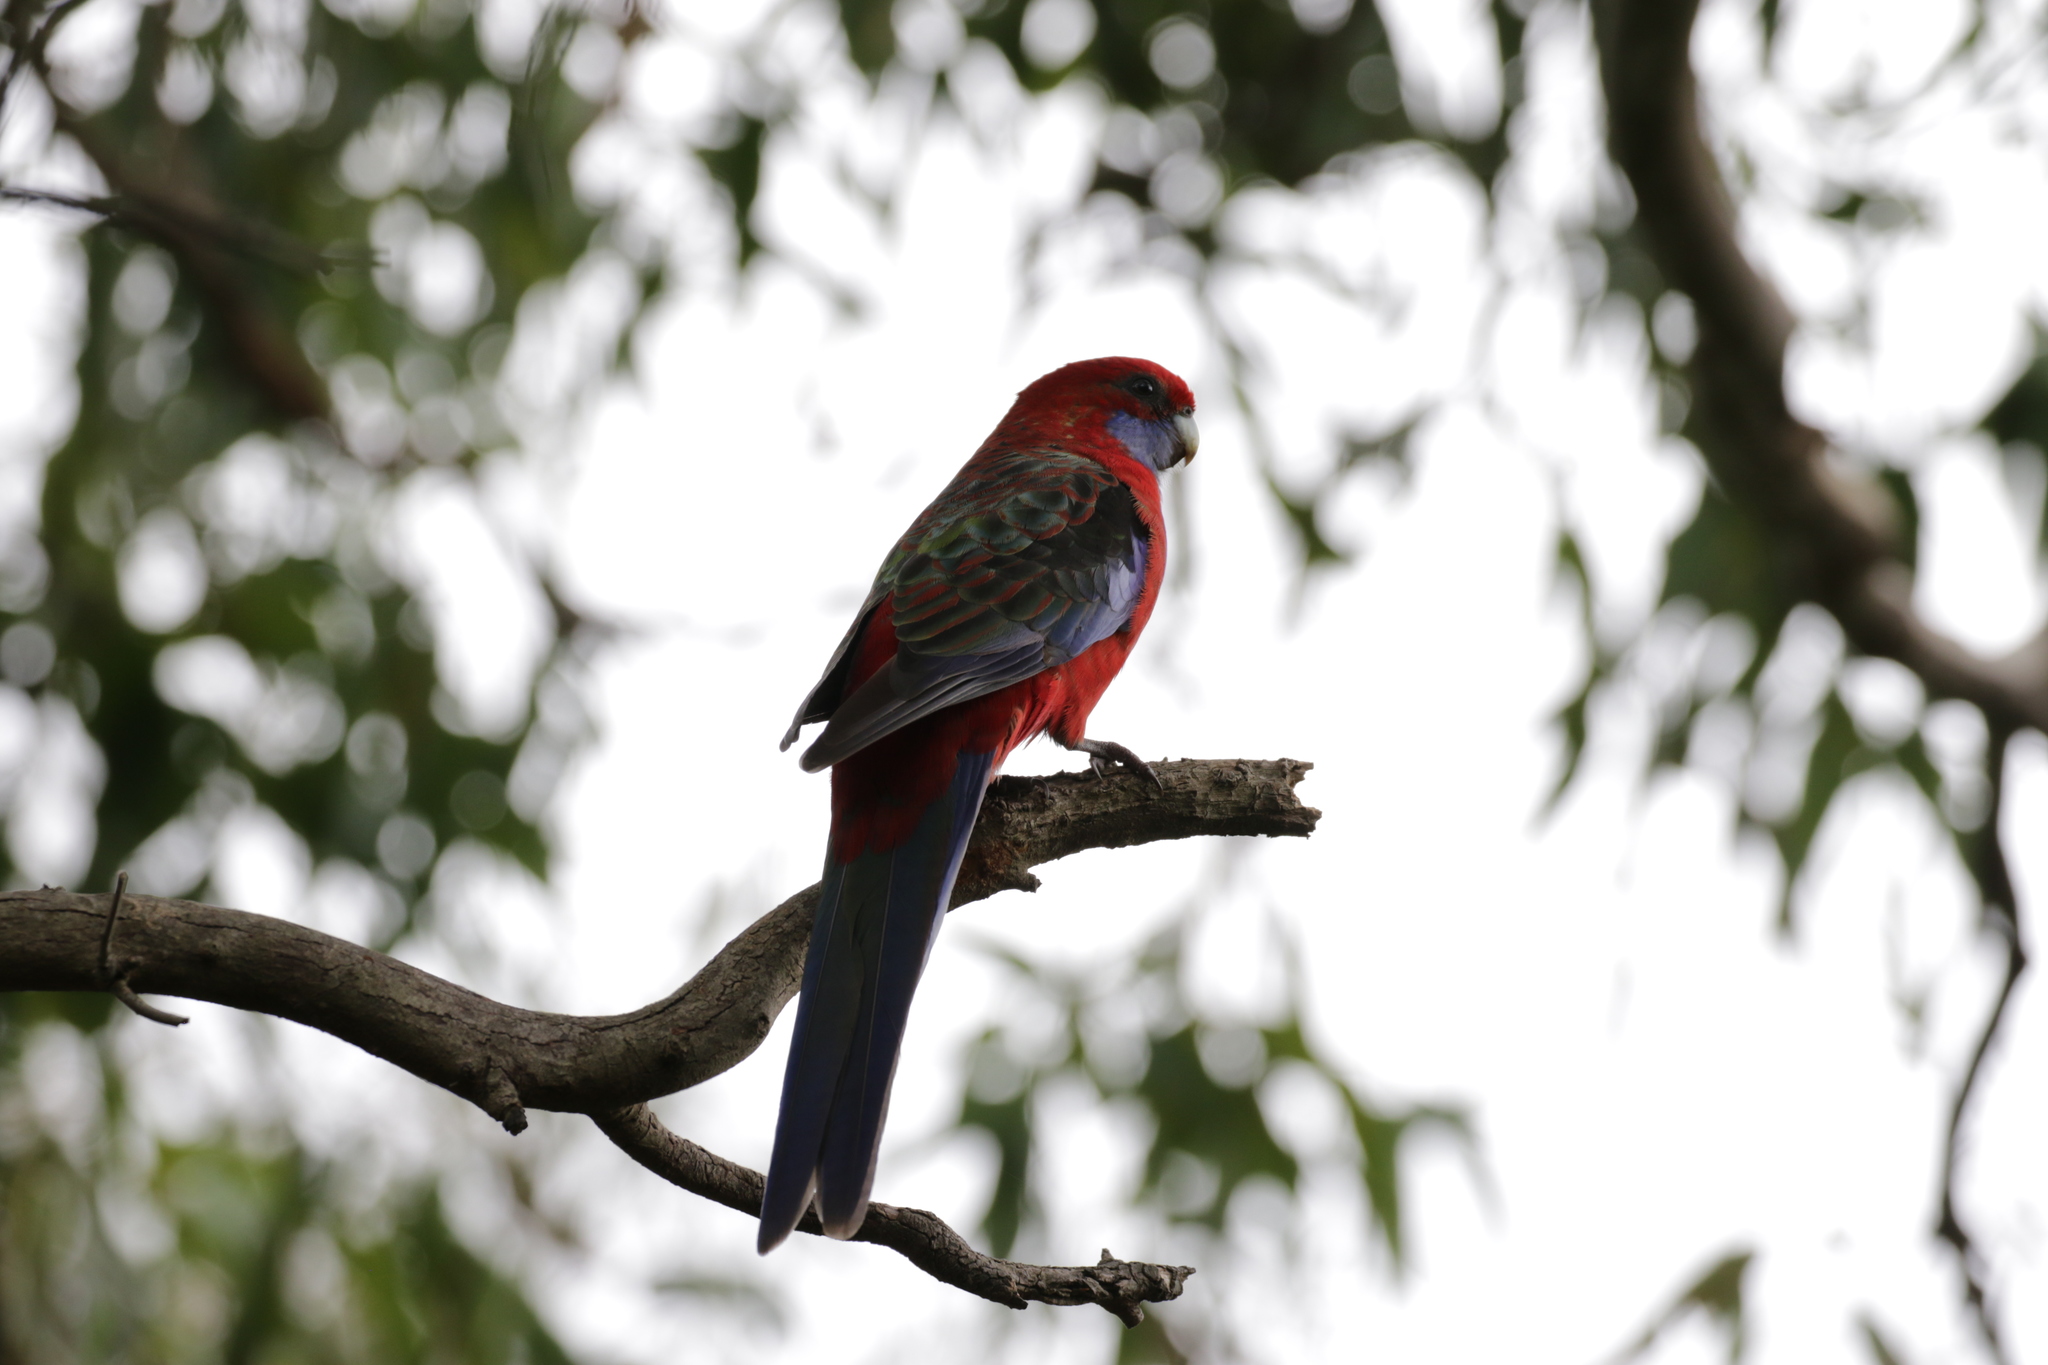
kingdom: Animalia
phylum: Chordata
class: Aves
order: Psittaciformes
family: Psittacidae
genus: Platycercus
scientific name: Platycercus elegans
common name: Crimson rosella
